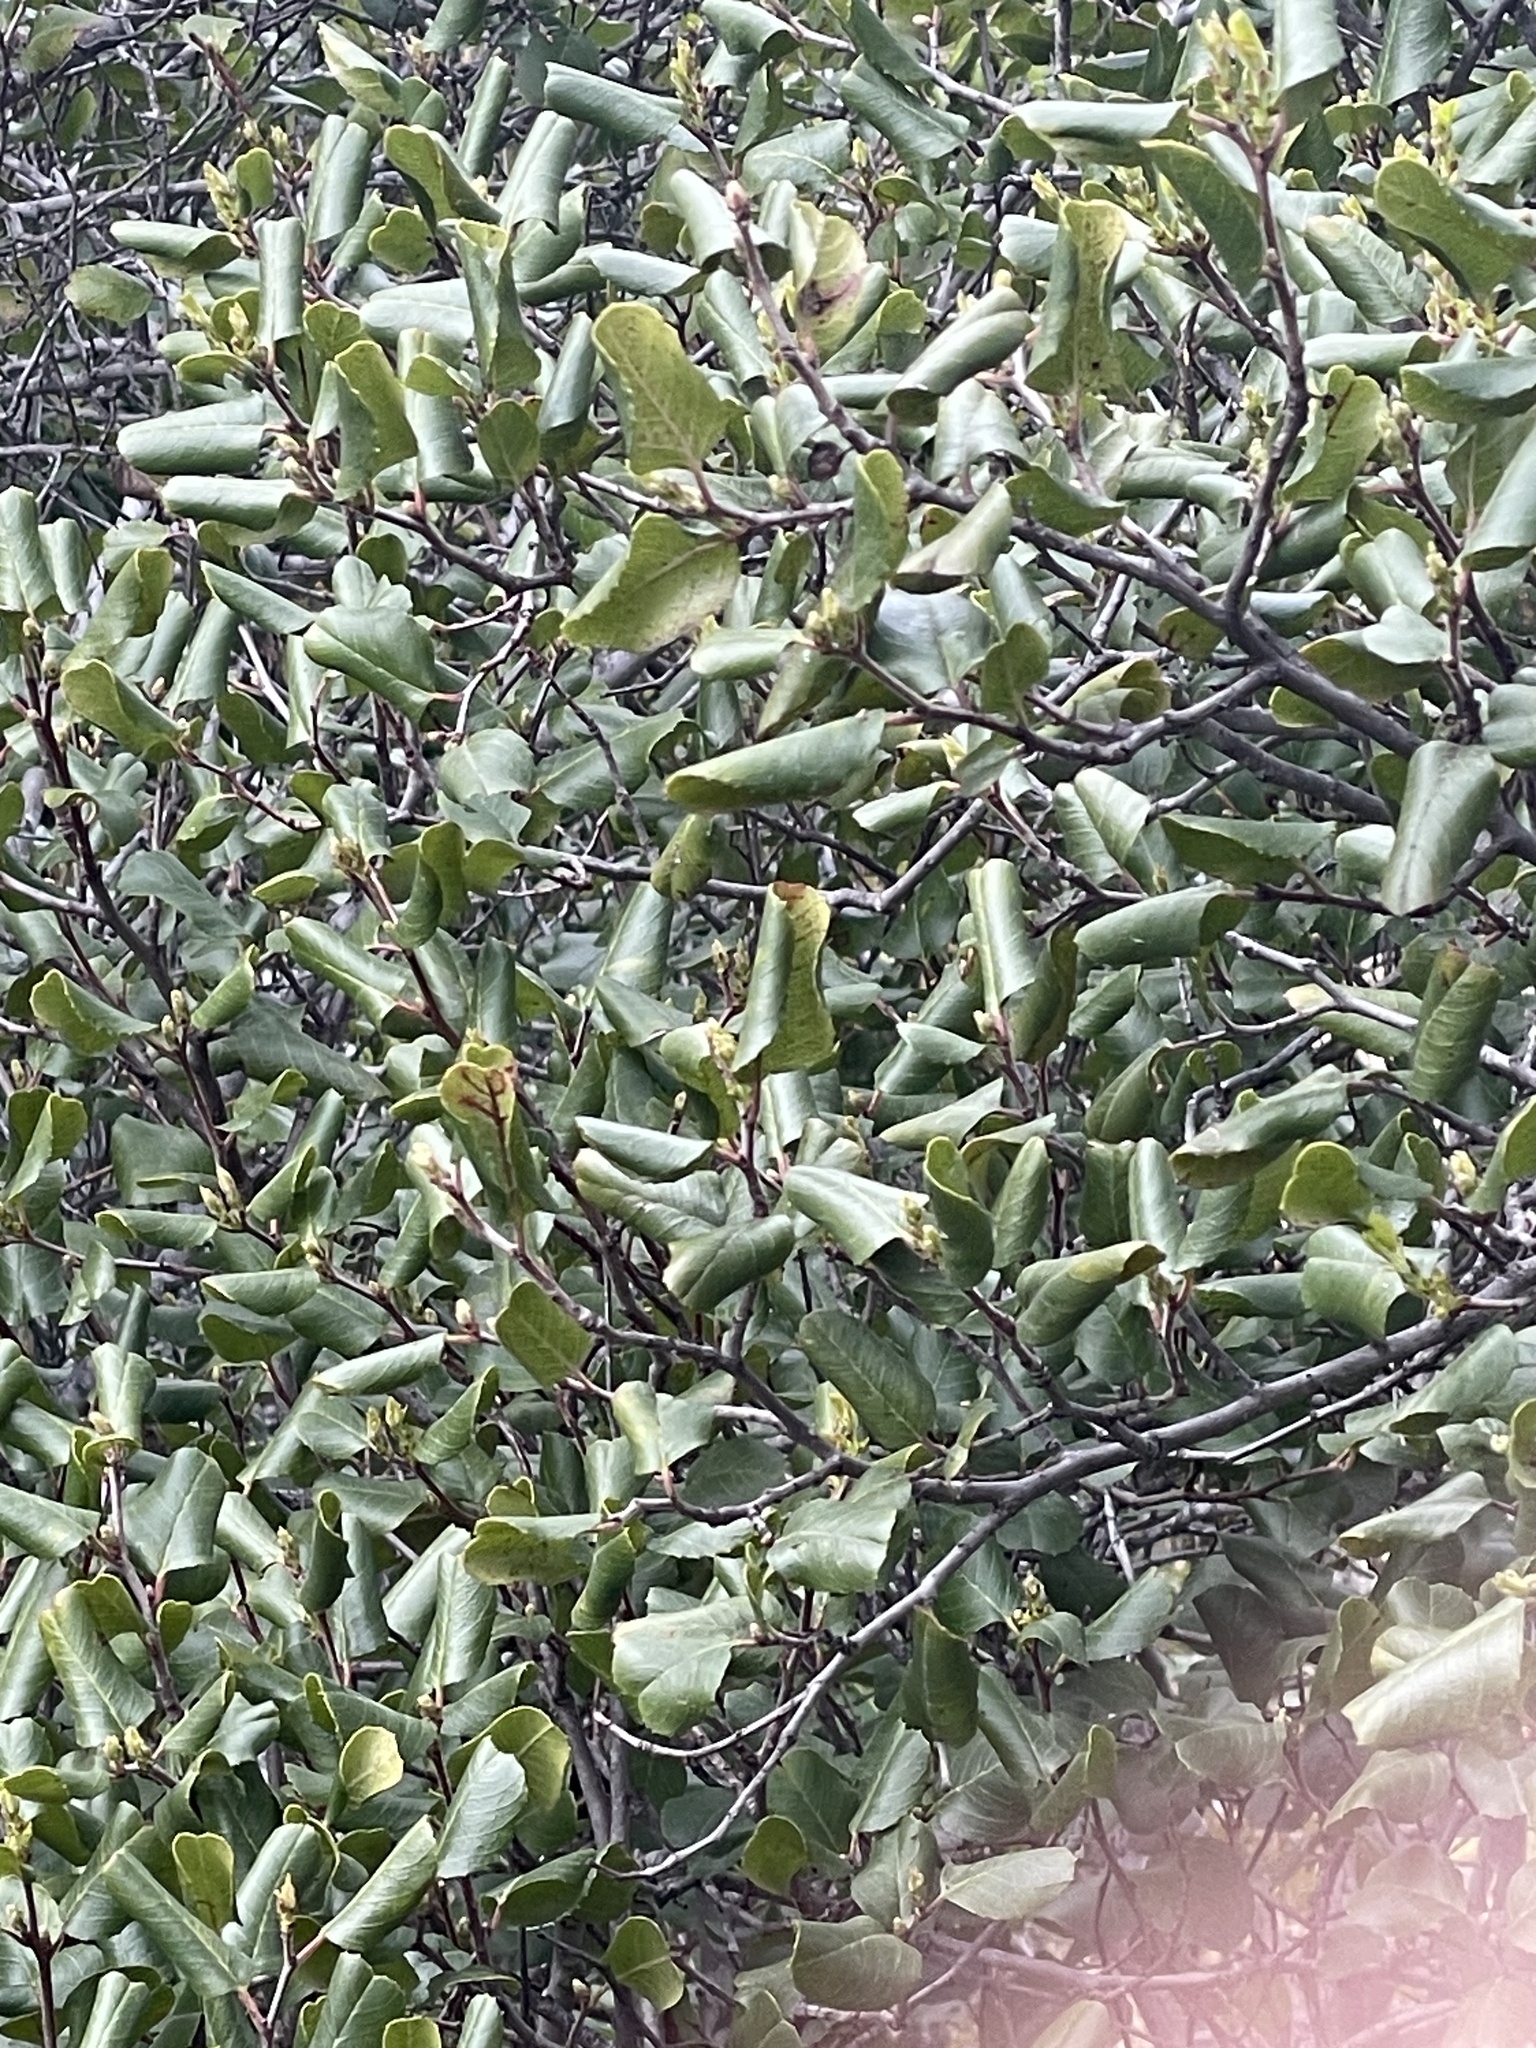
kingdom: Plantae
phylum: Tracheophyta
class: Magnoliopsida
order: Rosales
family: Rhamnaceae
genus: Endotropis
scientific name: Endotropis crocea
